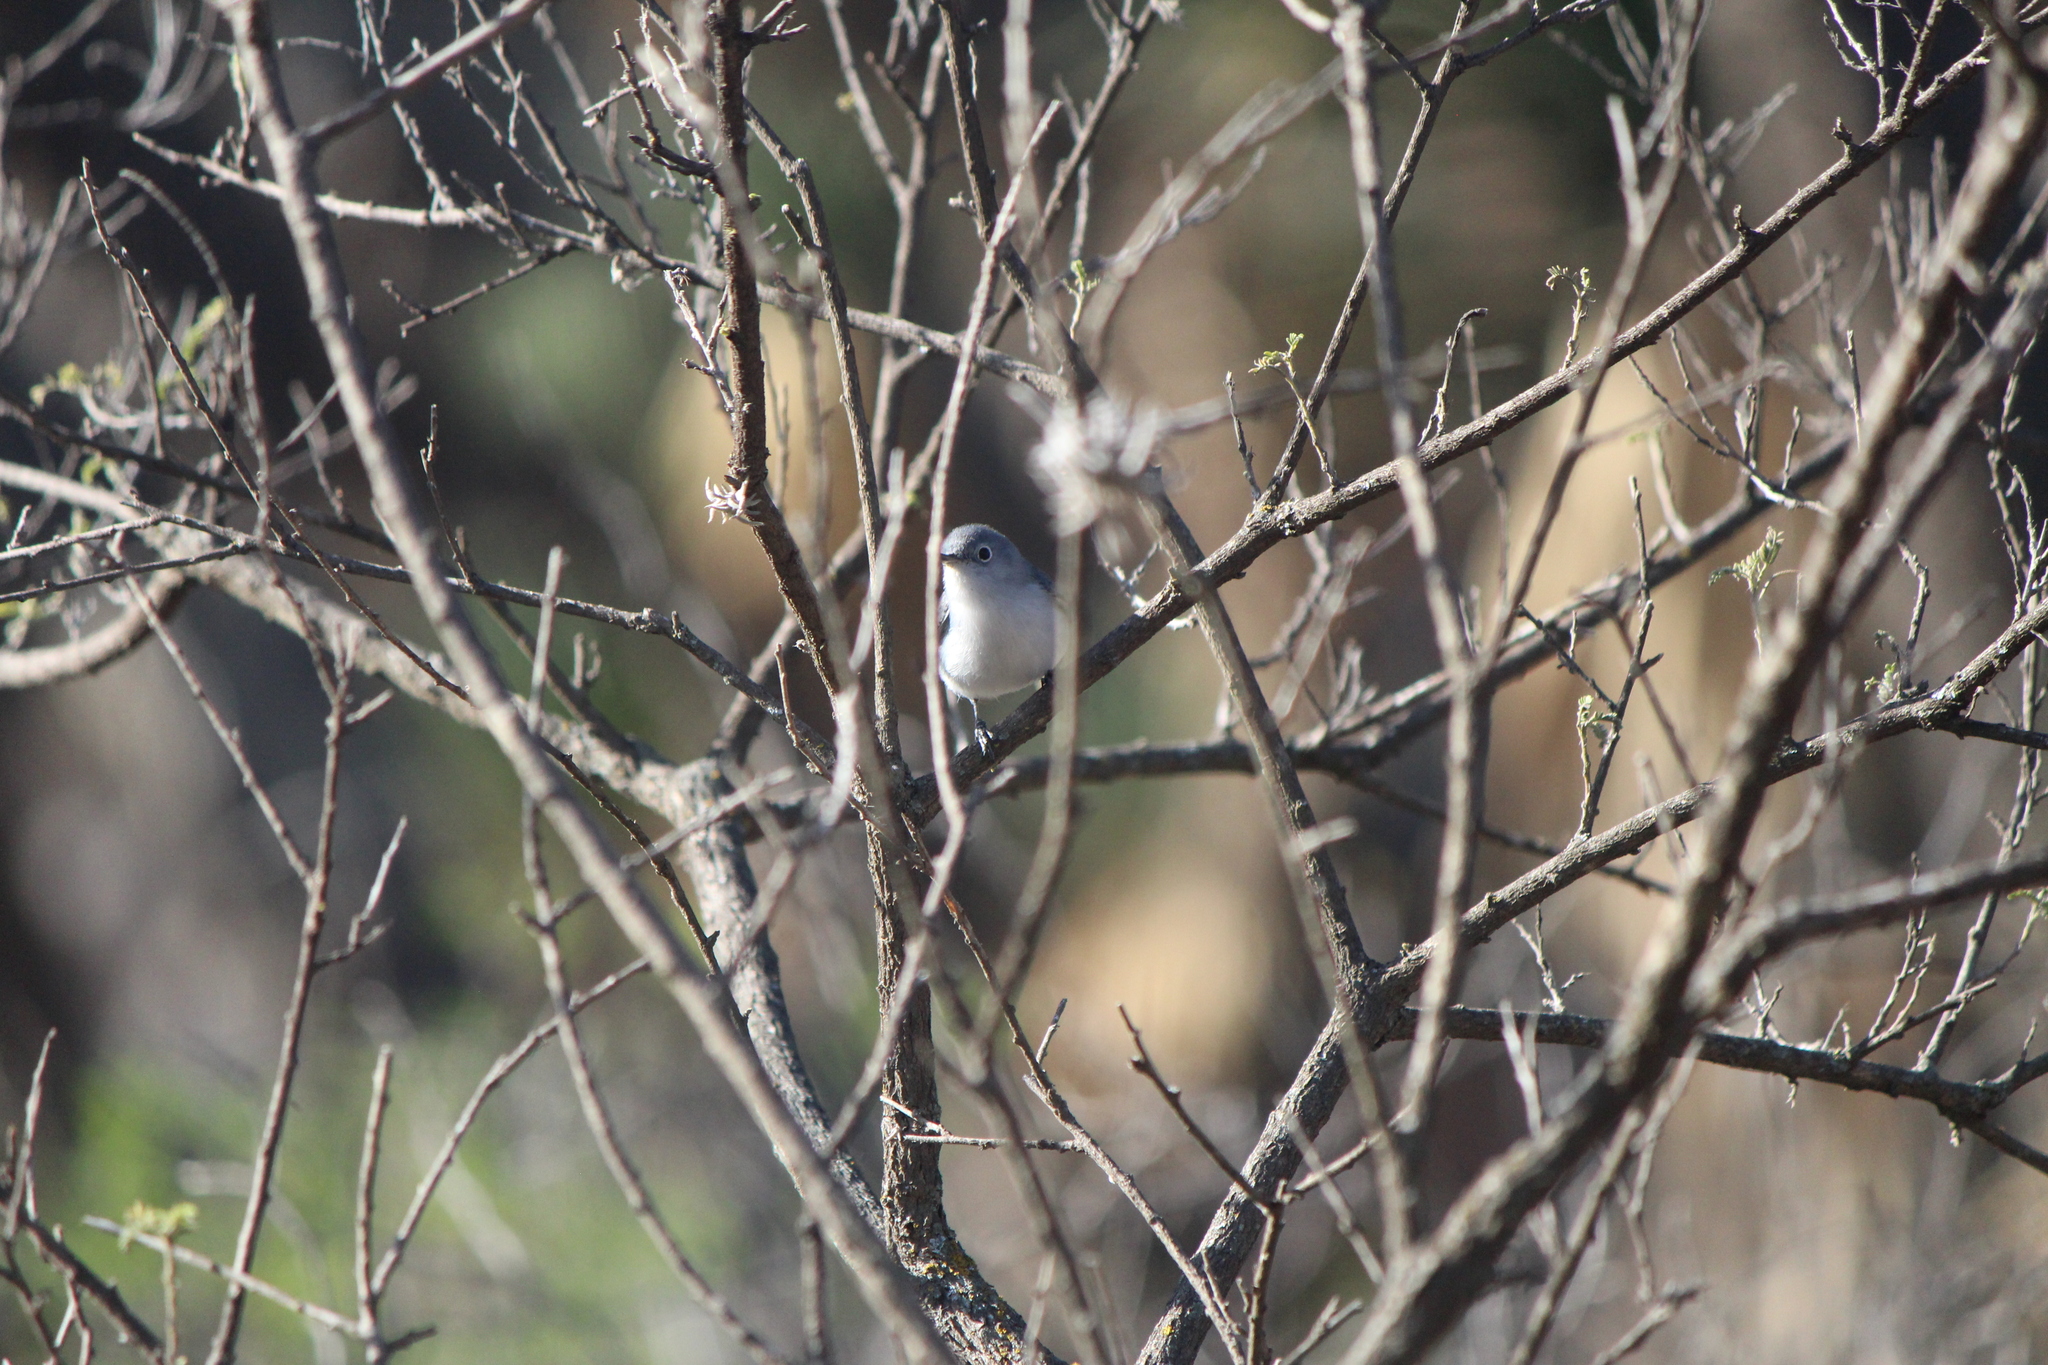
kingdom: Animalia
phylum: Chordata
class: Aves
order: Passeriformes
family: Polioptilidae
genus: Polioptila
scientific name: Polioptila caerulea
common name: Blue-gray gnatcatcher
